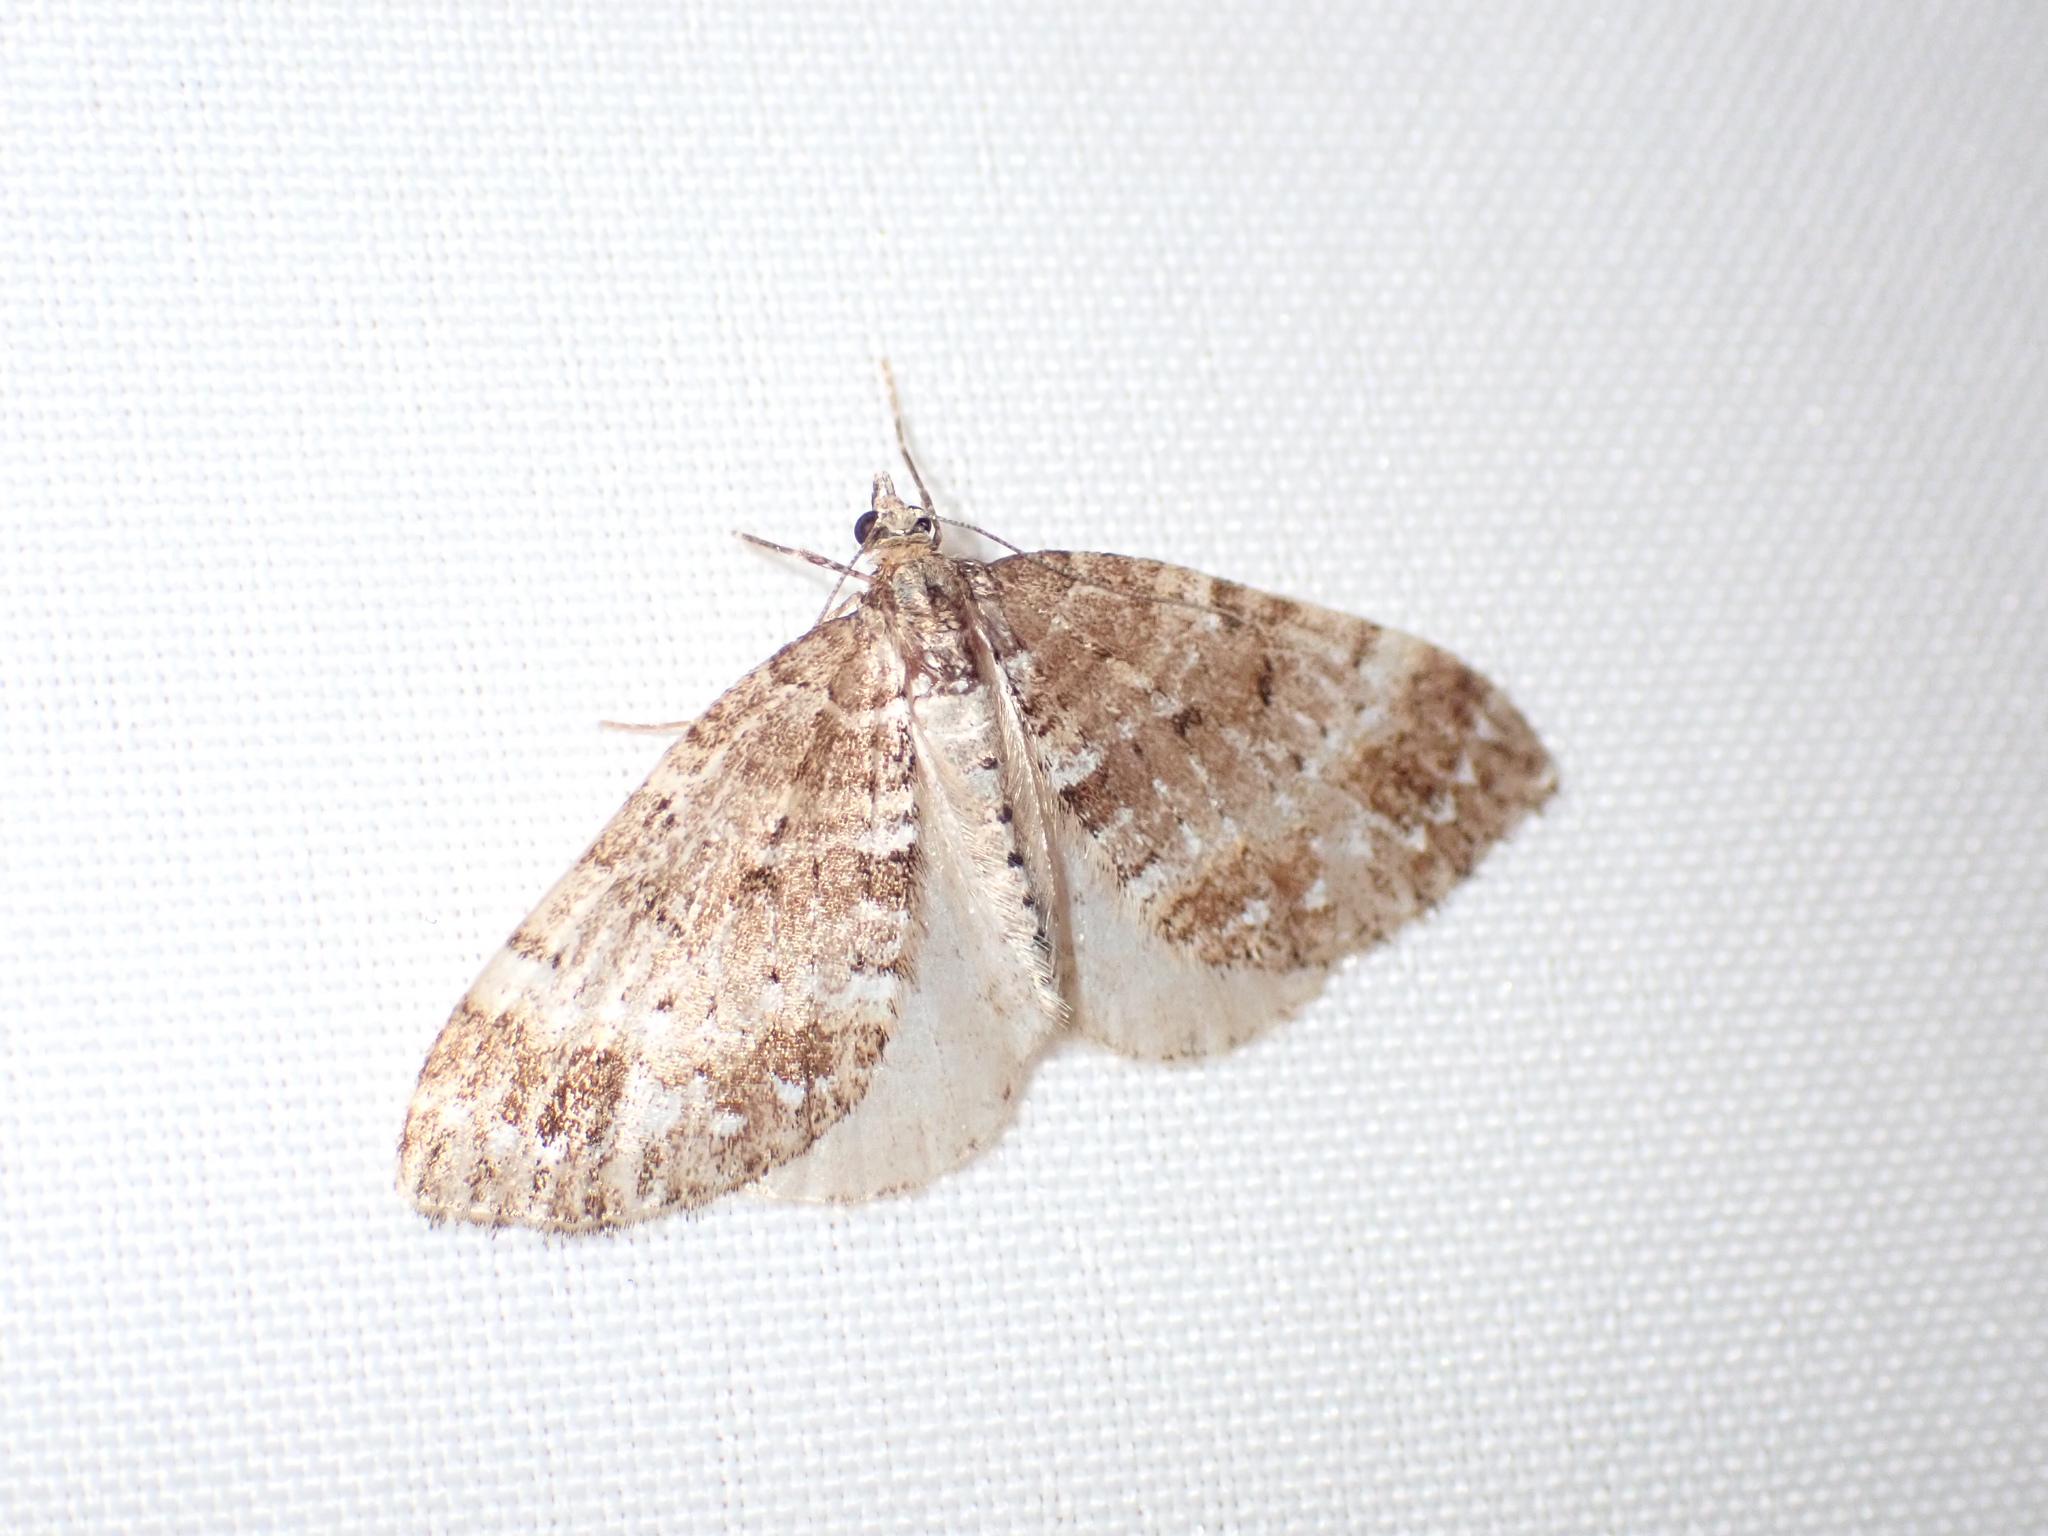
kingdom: Animalia
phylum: Arthropoda
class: Insecta
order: Lepidoptera
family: Geometridae
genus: Martania
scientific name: Martania
